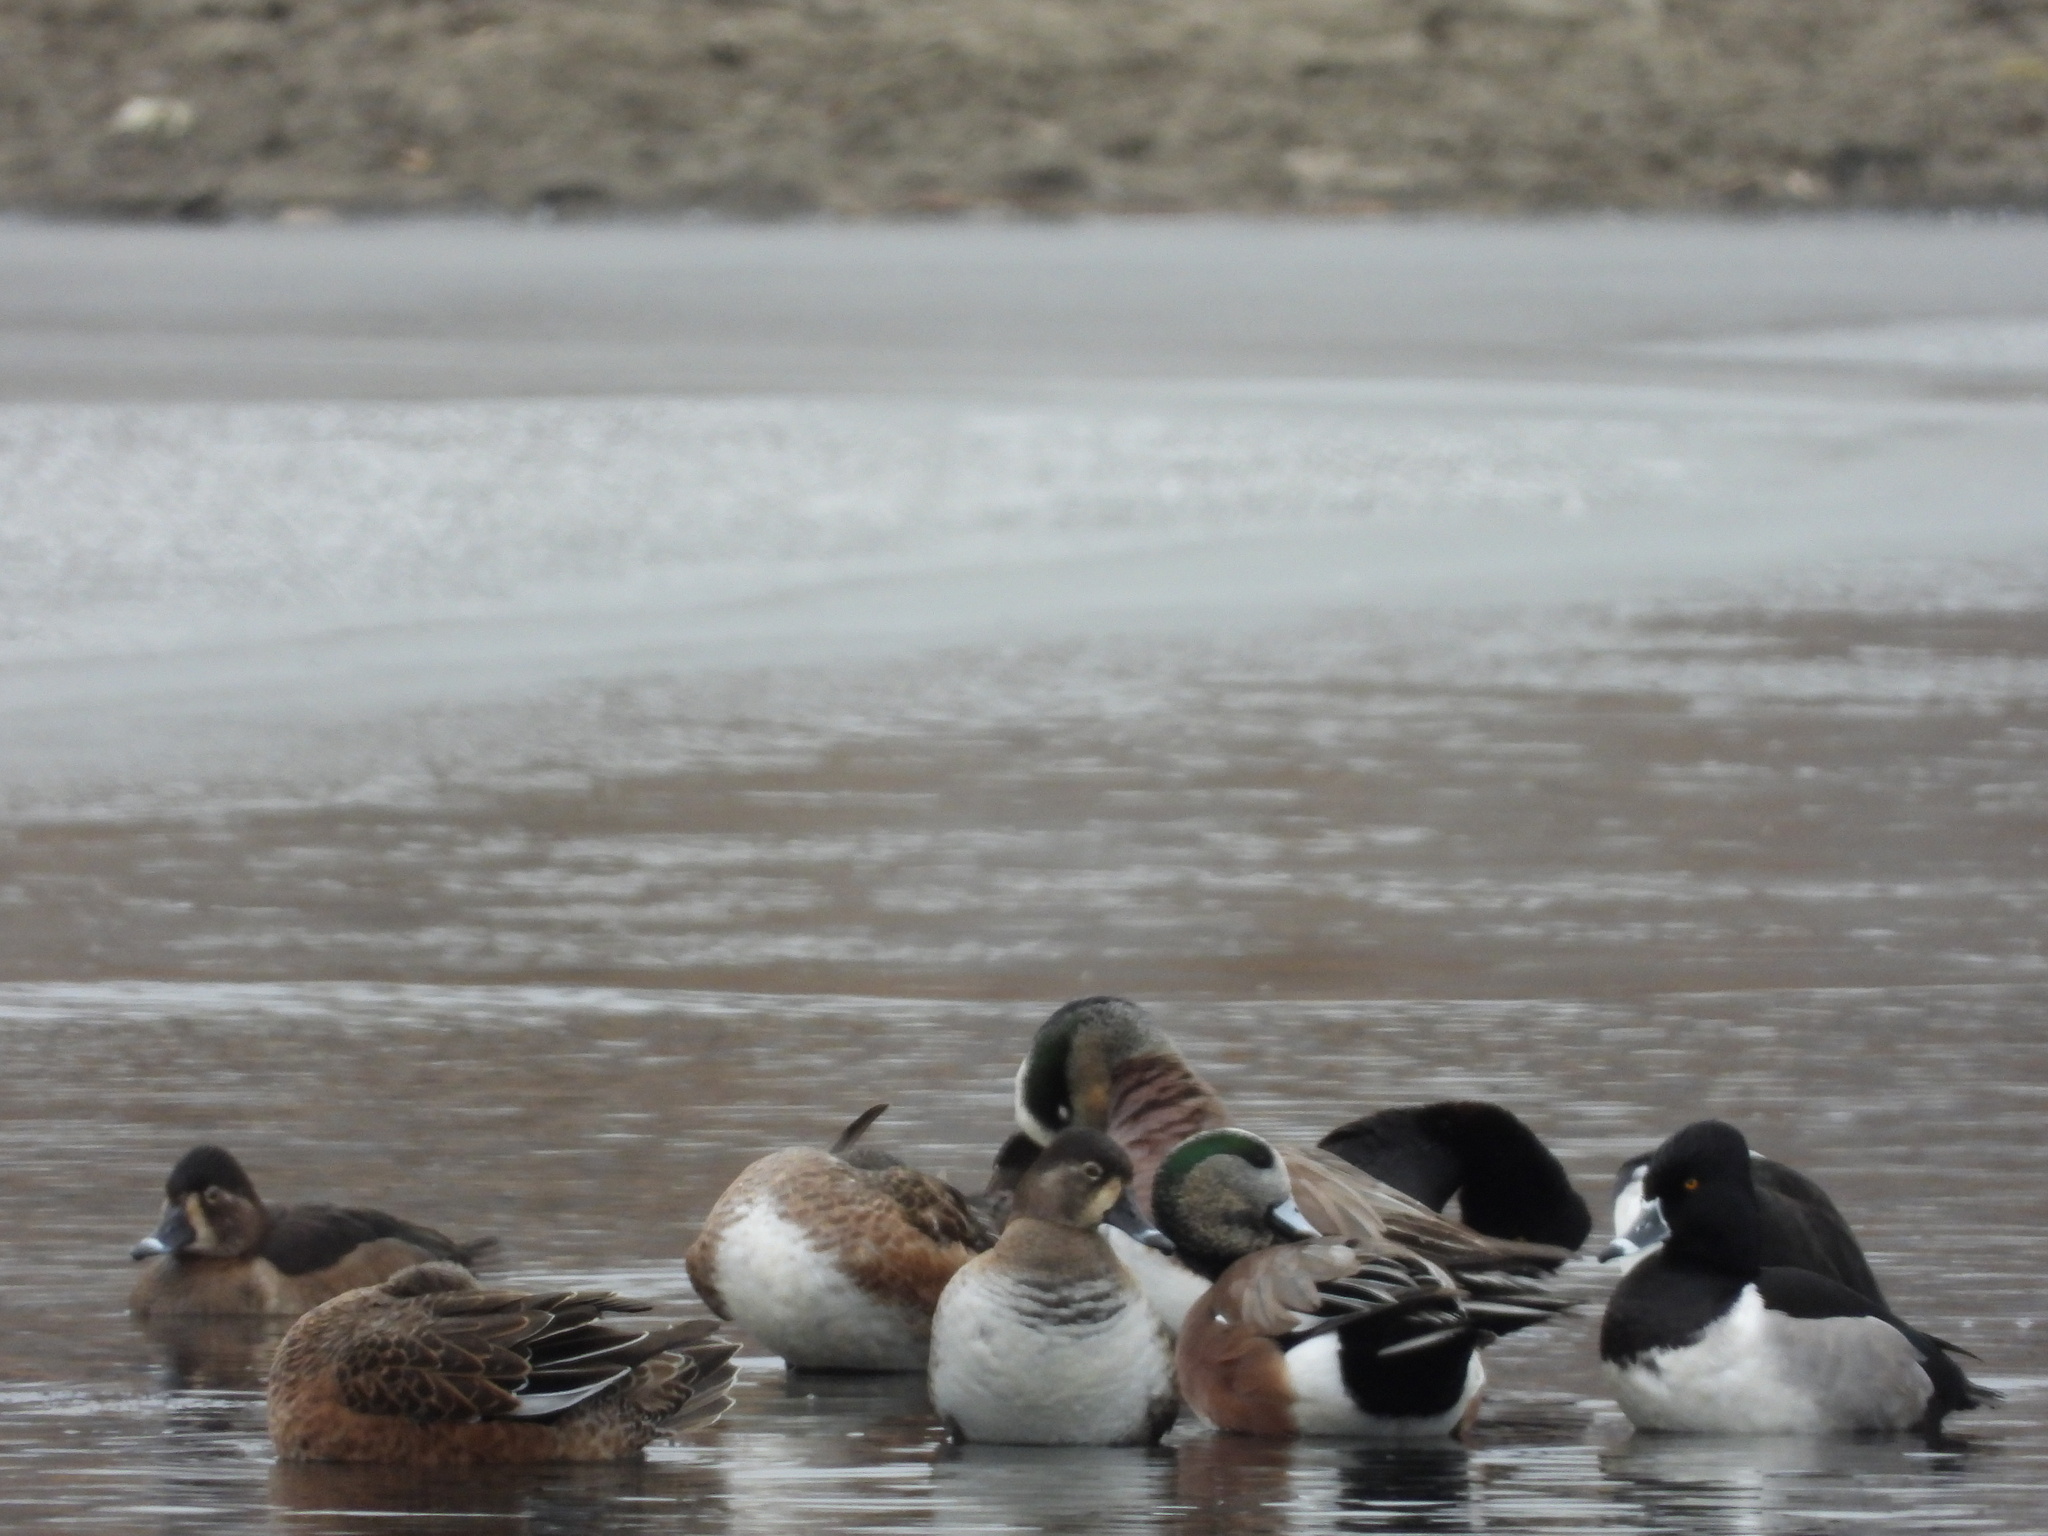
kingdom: Animalia
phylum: Chordata
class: Aves
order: Anseriformes
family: Anatidae
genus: Mareca
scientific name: Mareca americana
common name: American wigeon
